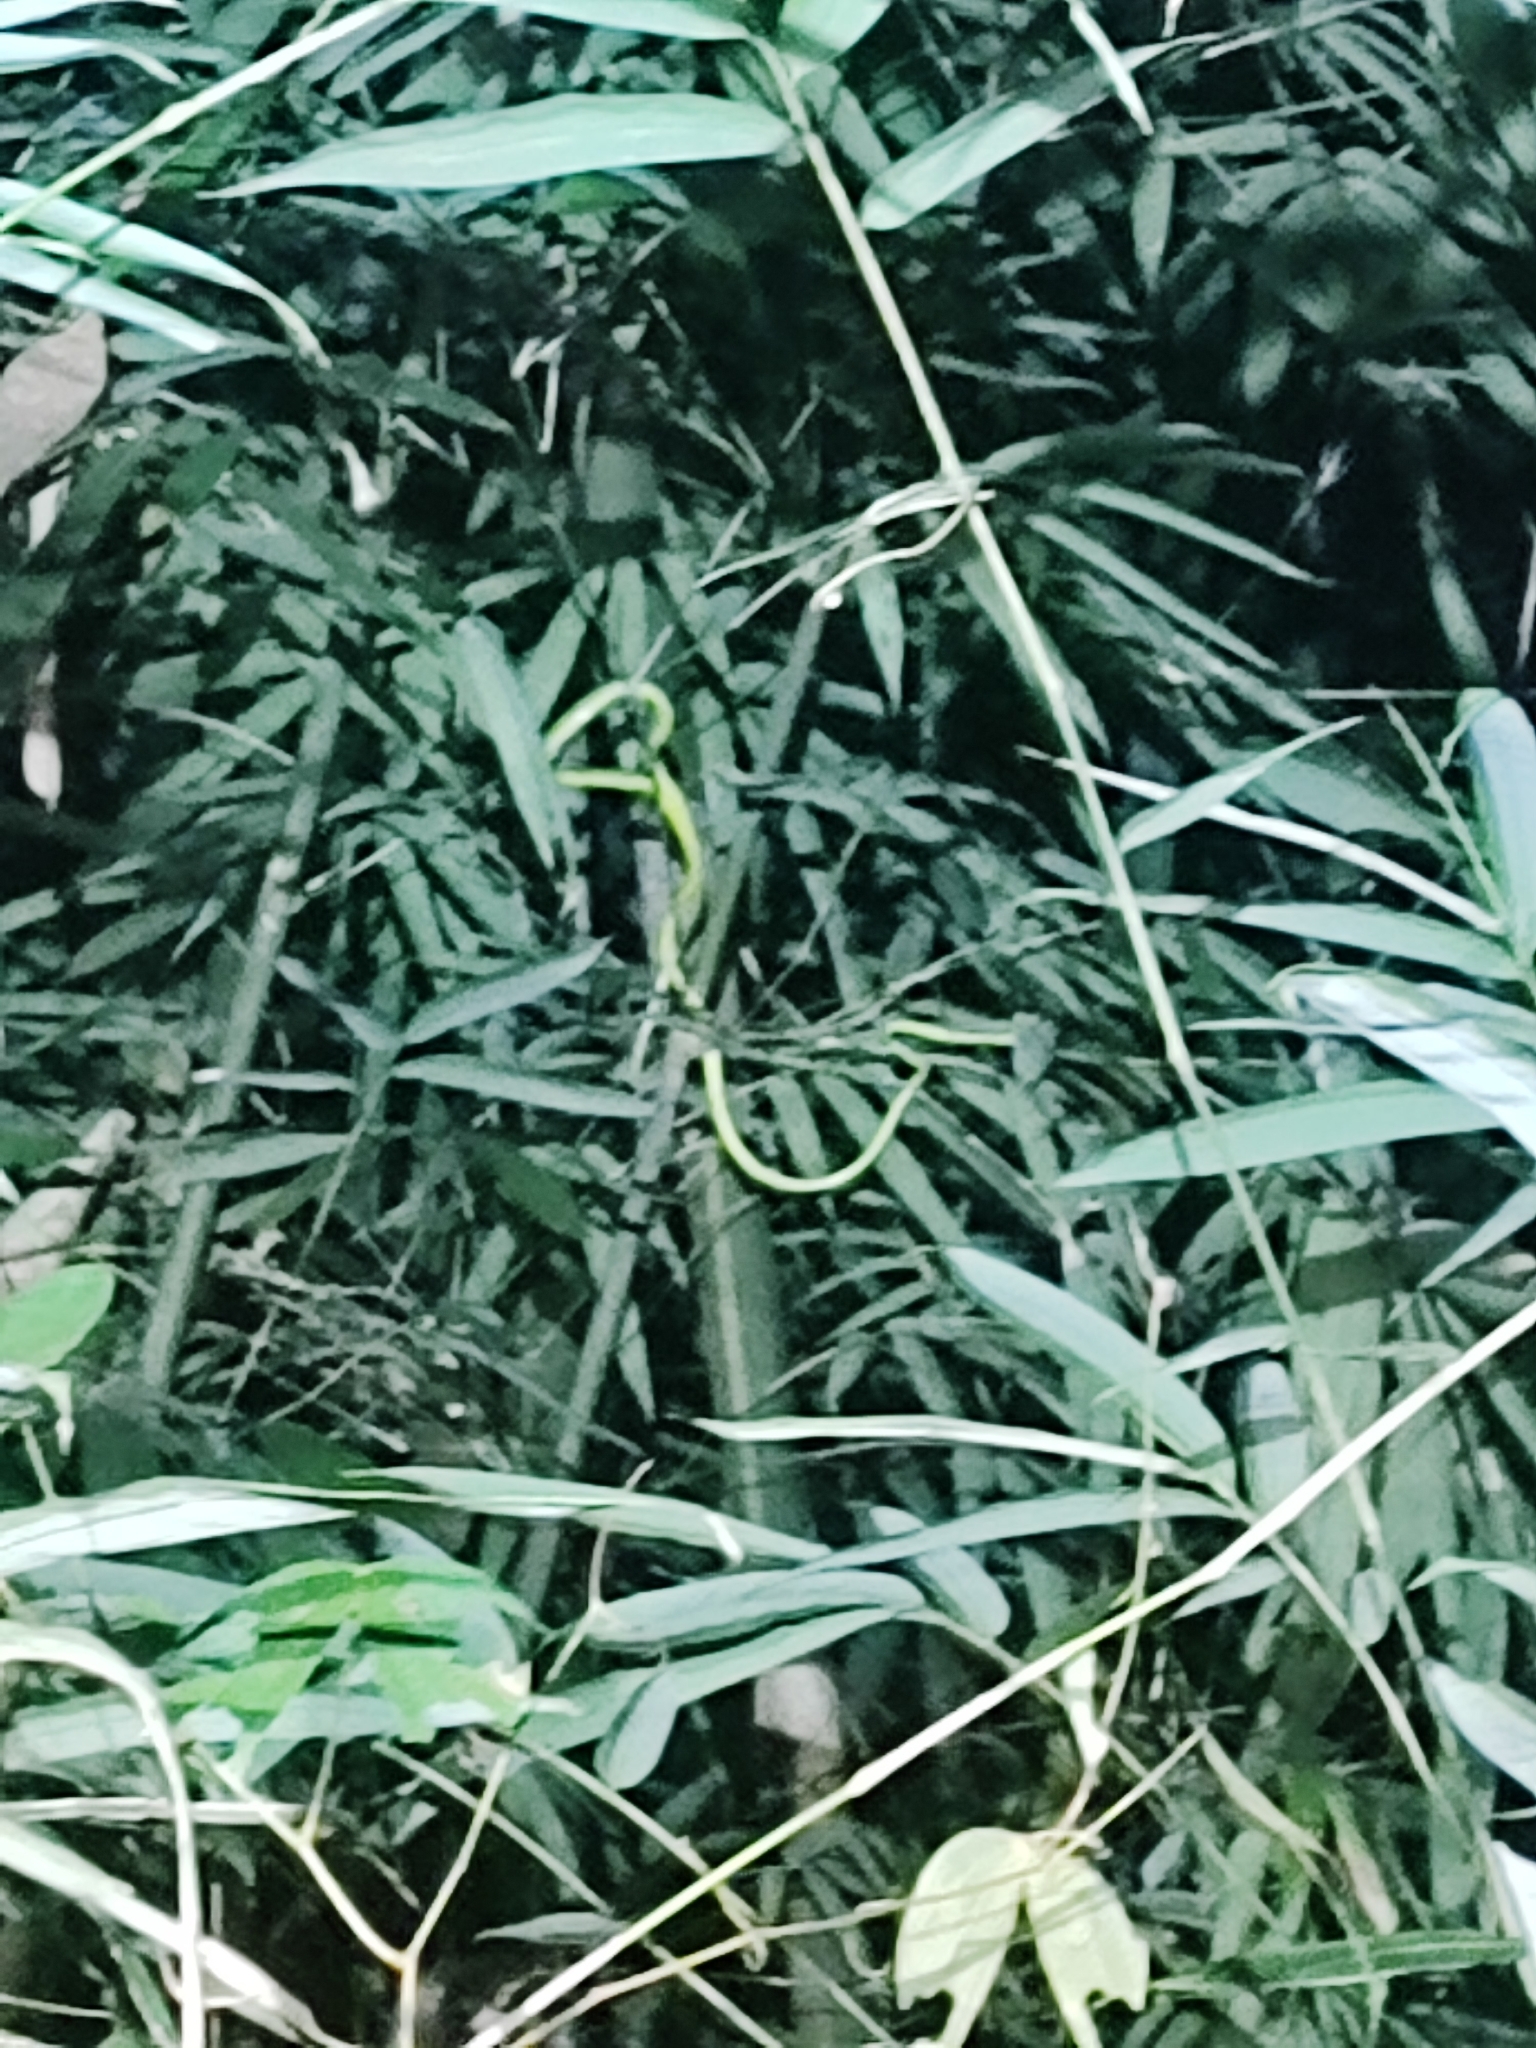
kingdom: Animalia
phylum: Chordata
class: Squamata
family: Colubridae
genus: Ahaetulla
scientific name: Ahaetulla prasina
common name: Oriental whip snake
